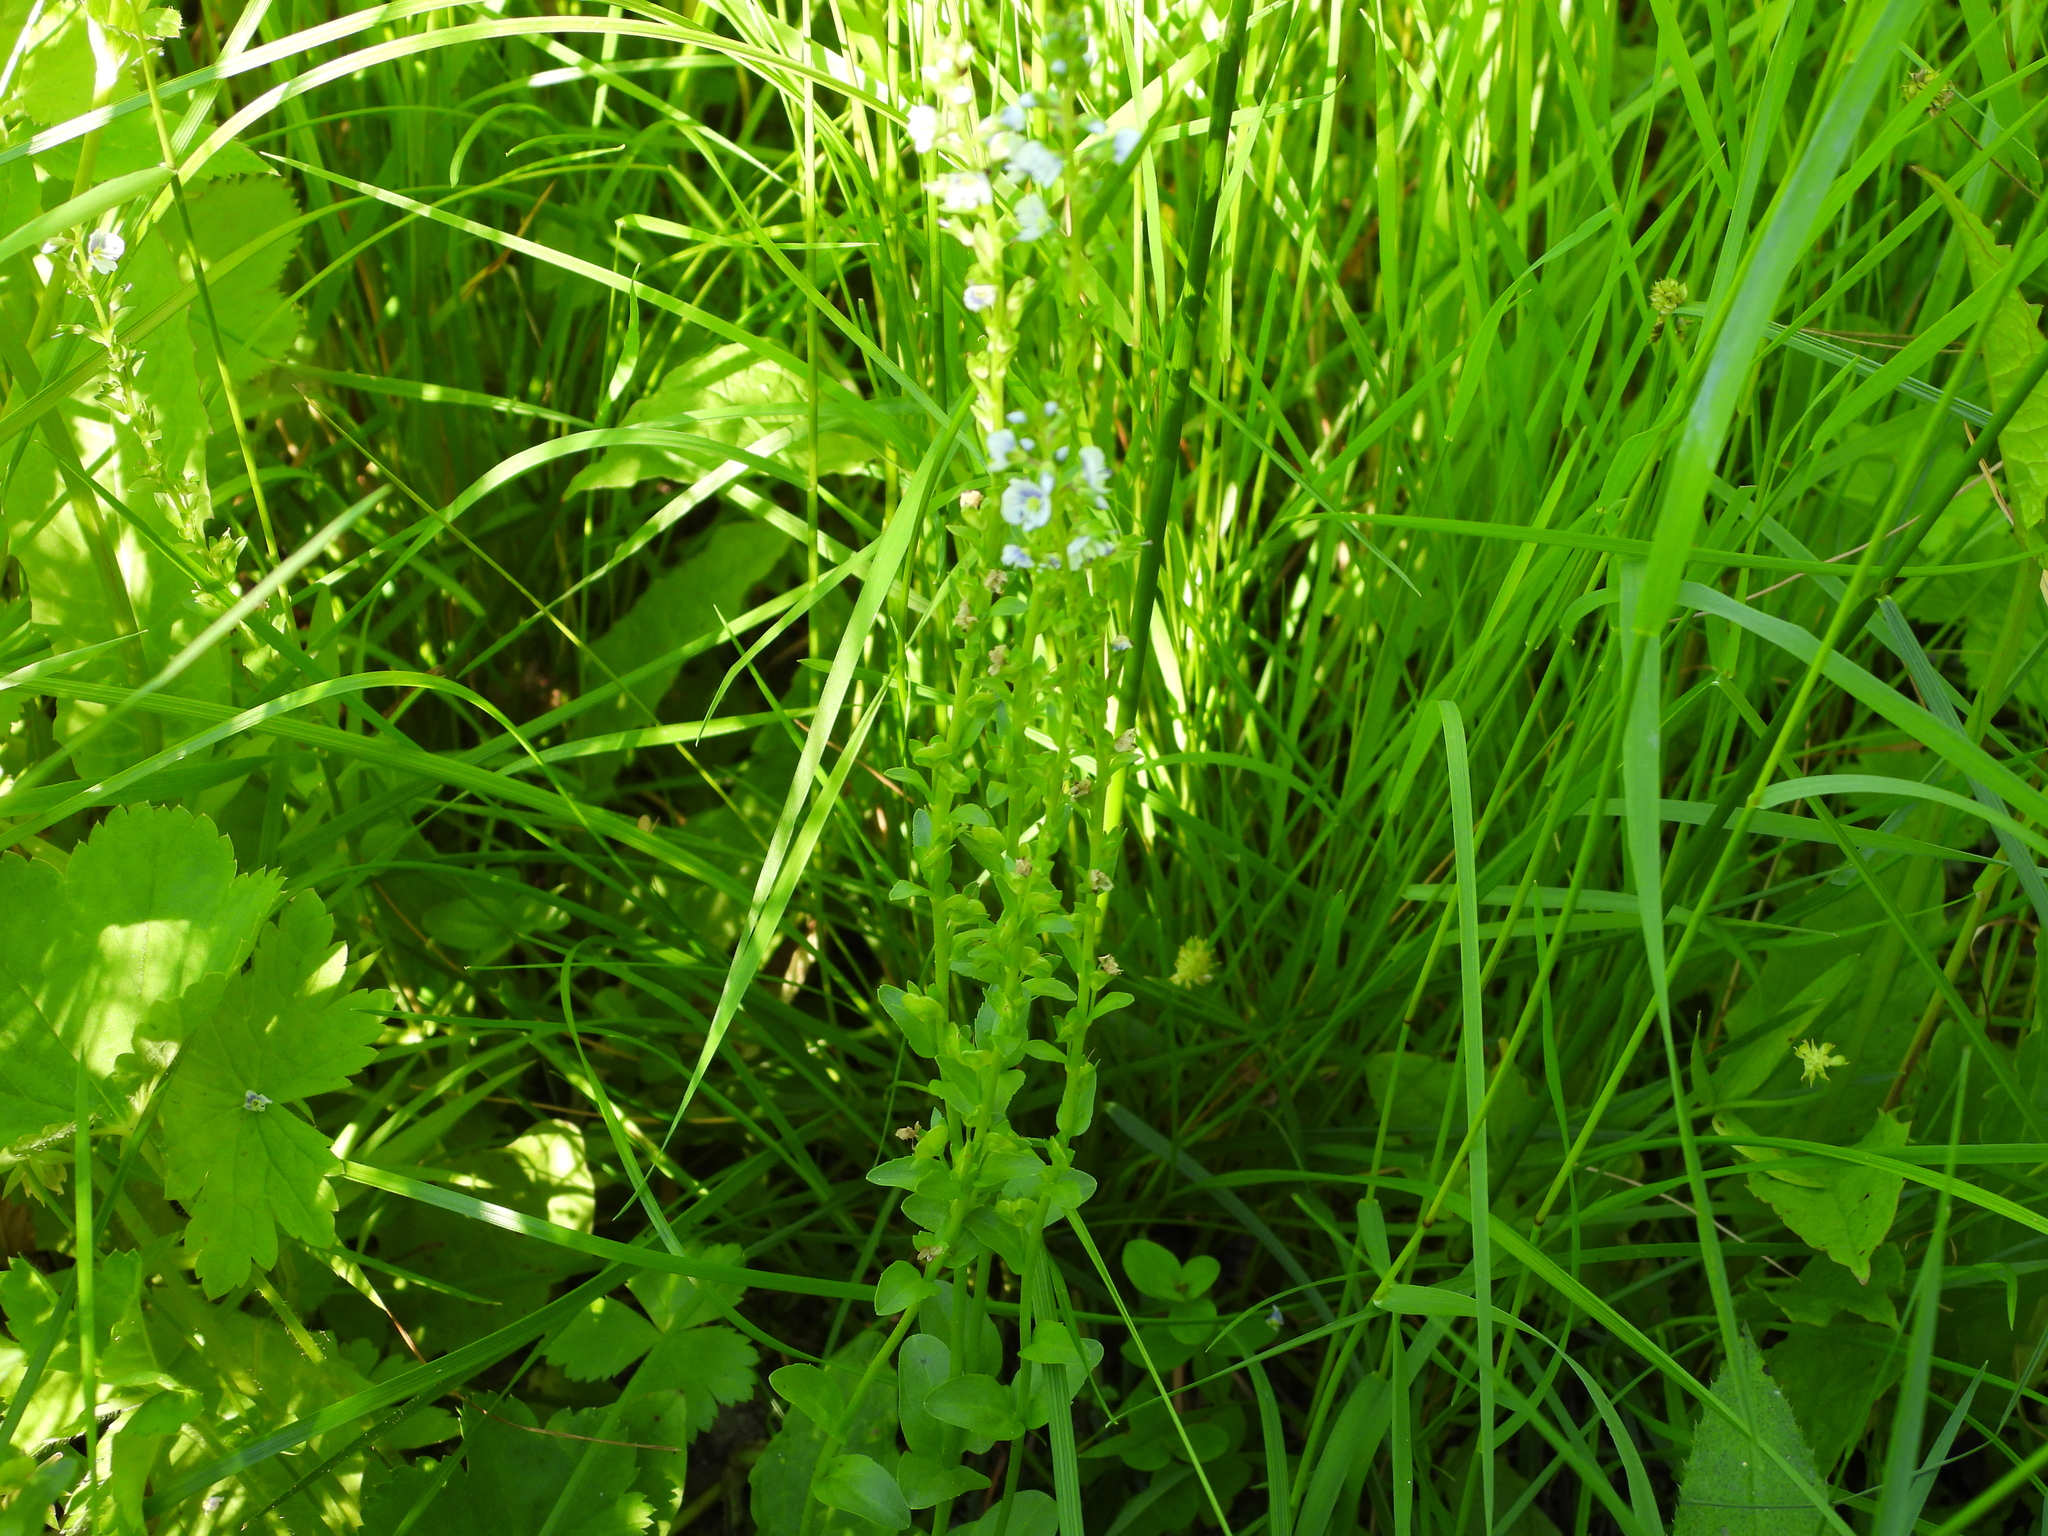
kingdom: Plantae
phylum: Tracheophyta
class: Magnoliopsida
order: Lamiales
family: Plantaginaceae
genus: Veronica
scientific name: Veronica serpyllifolia
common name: Thyme-leaved speedwell
